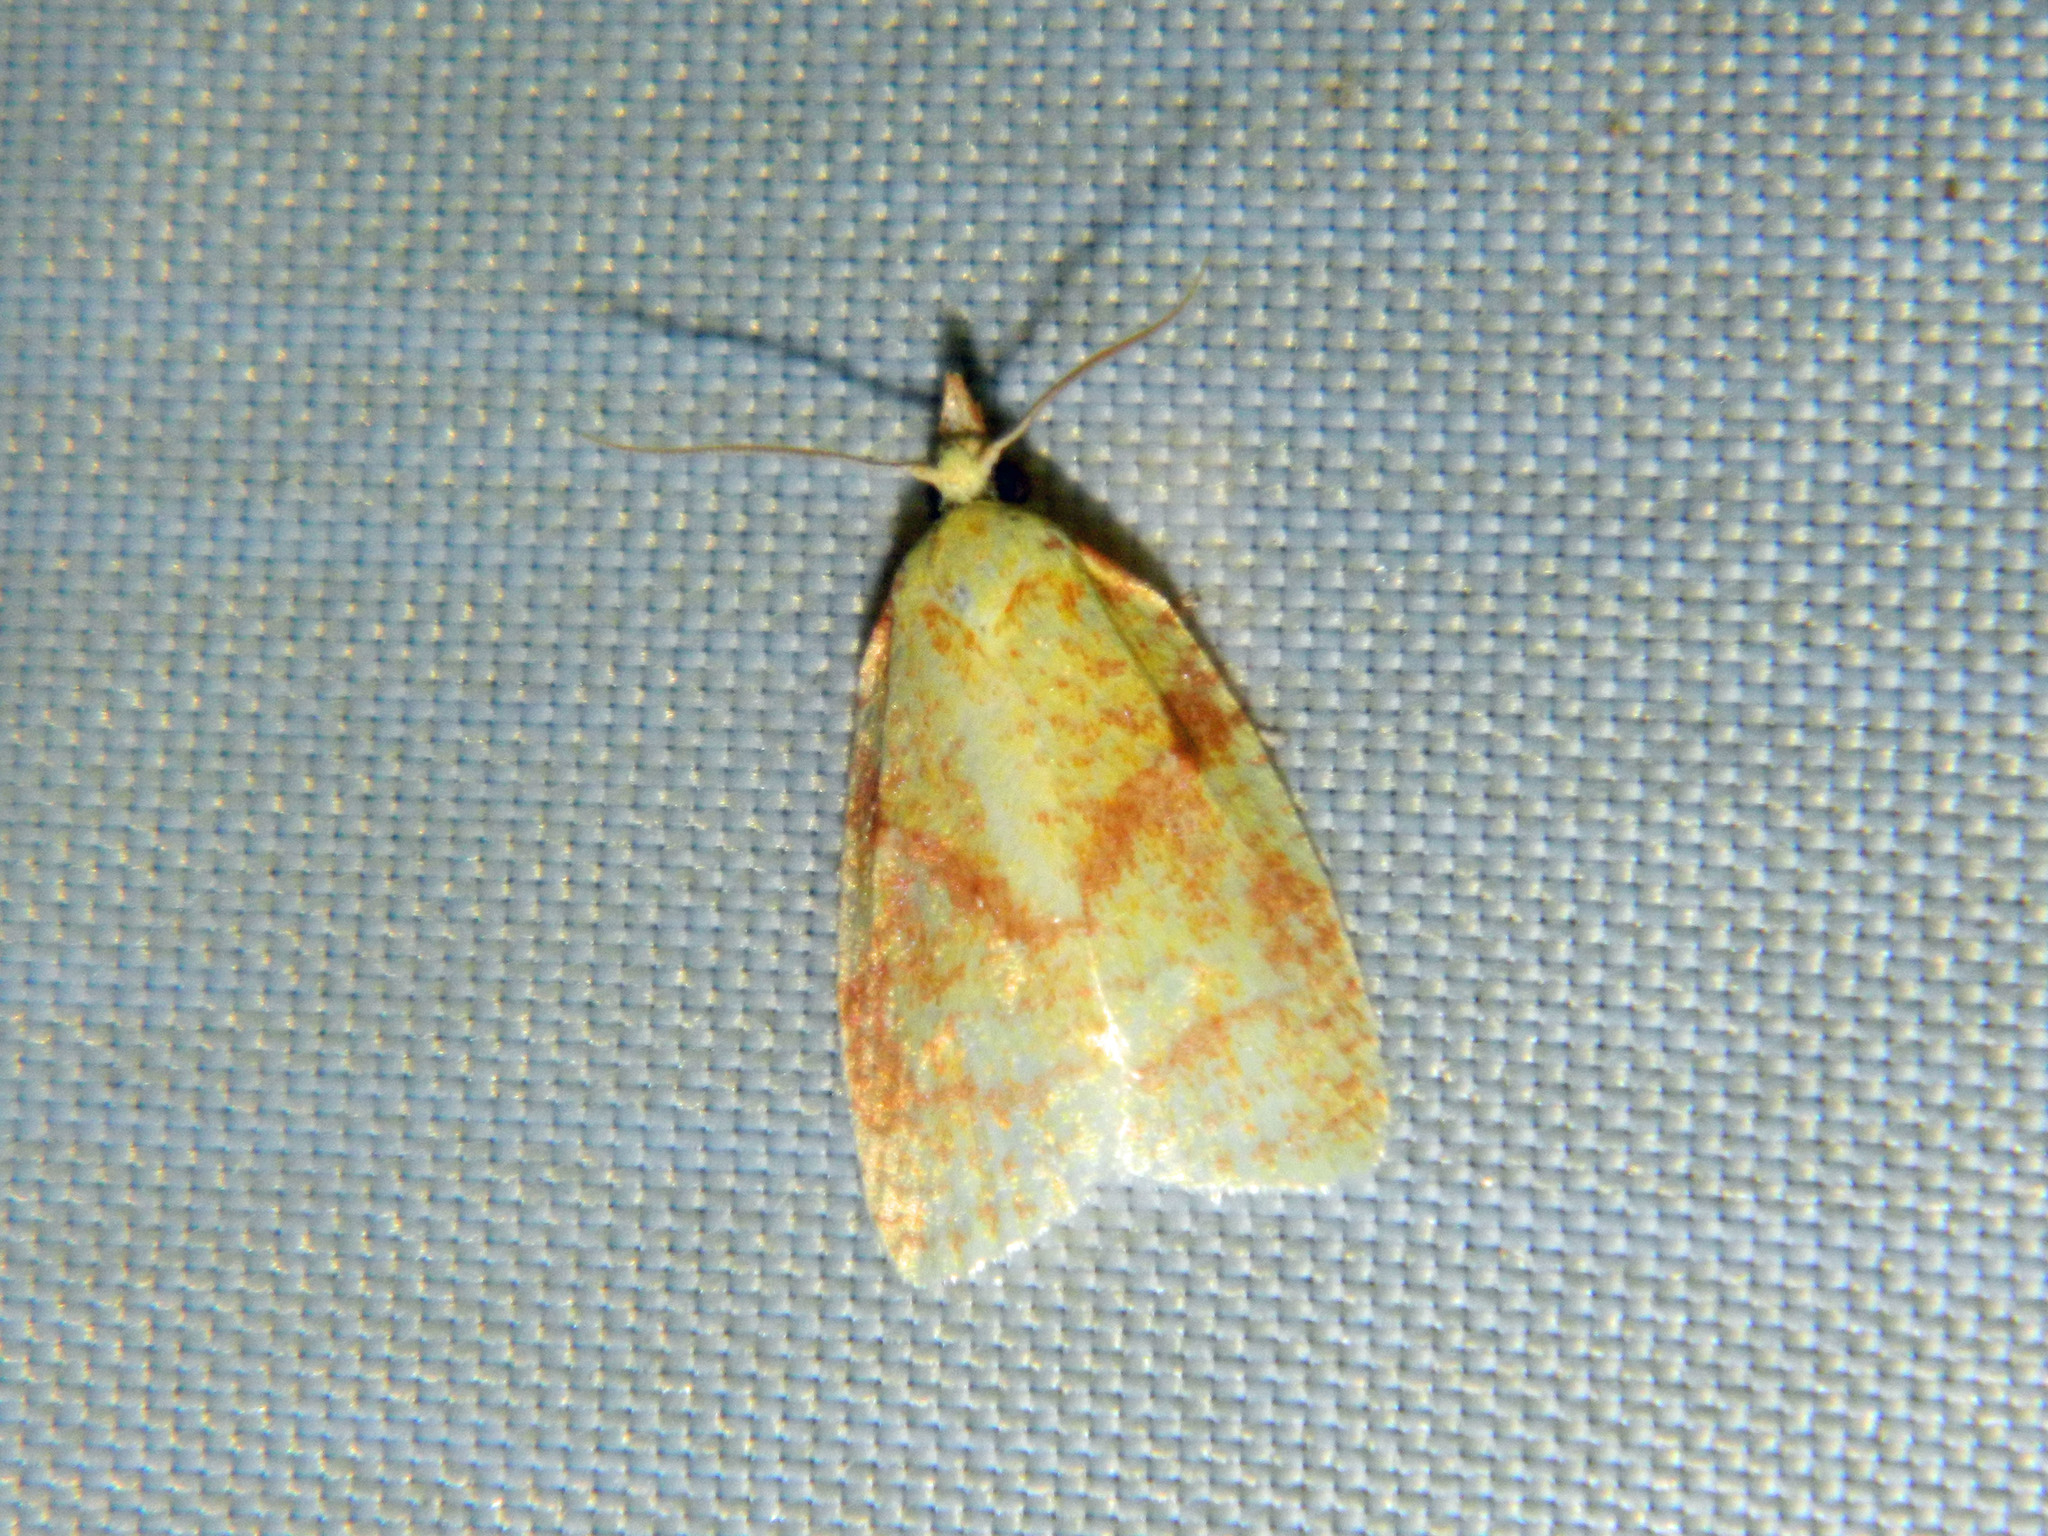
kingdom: Animalia
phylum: Arthropoda
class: Insecta
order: Lepidoptera
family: Tortricidae
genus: Cenopis
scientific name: Cenopis pettitana
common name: Maple-basswood leafroller moth
